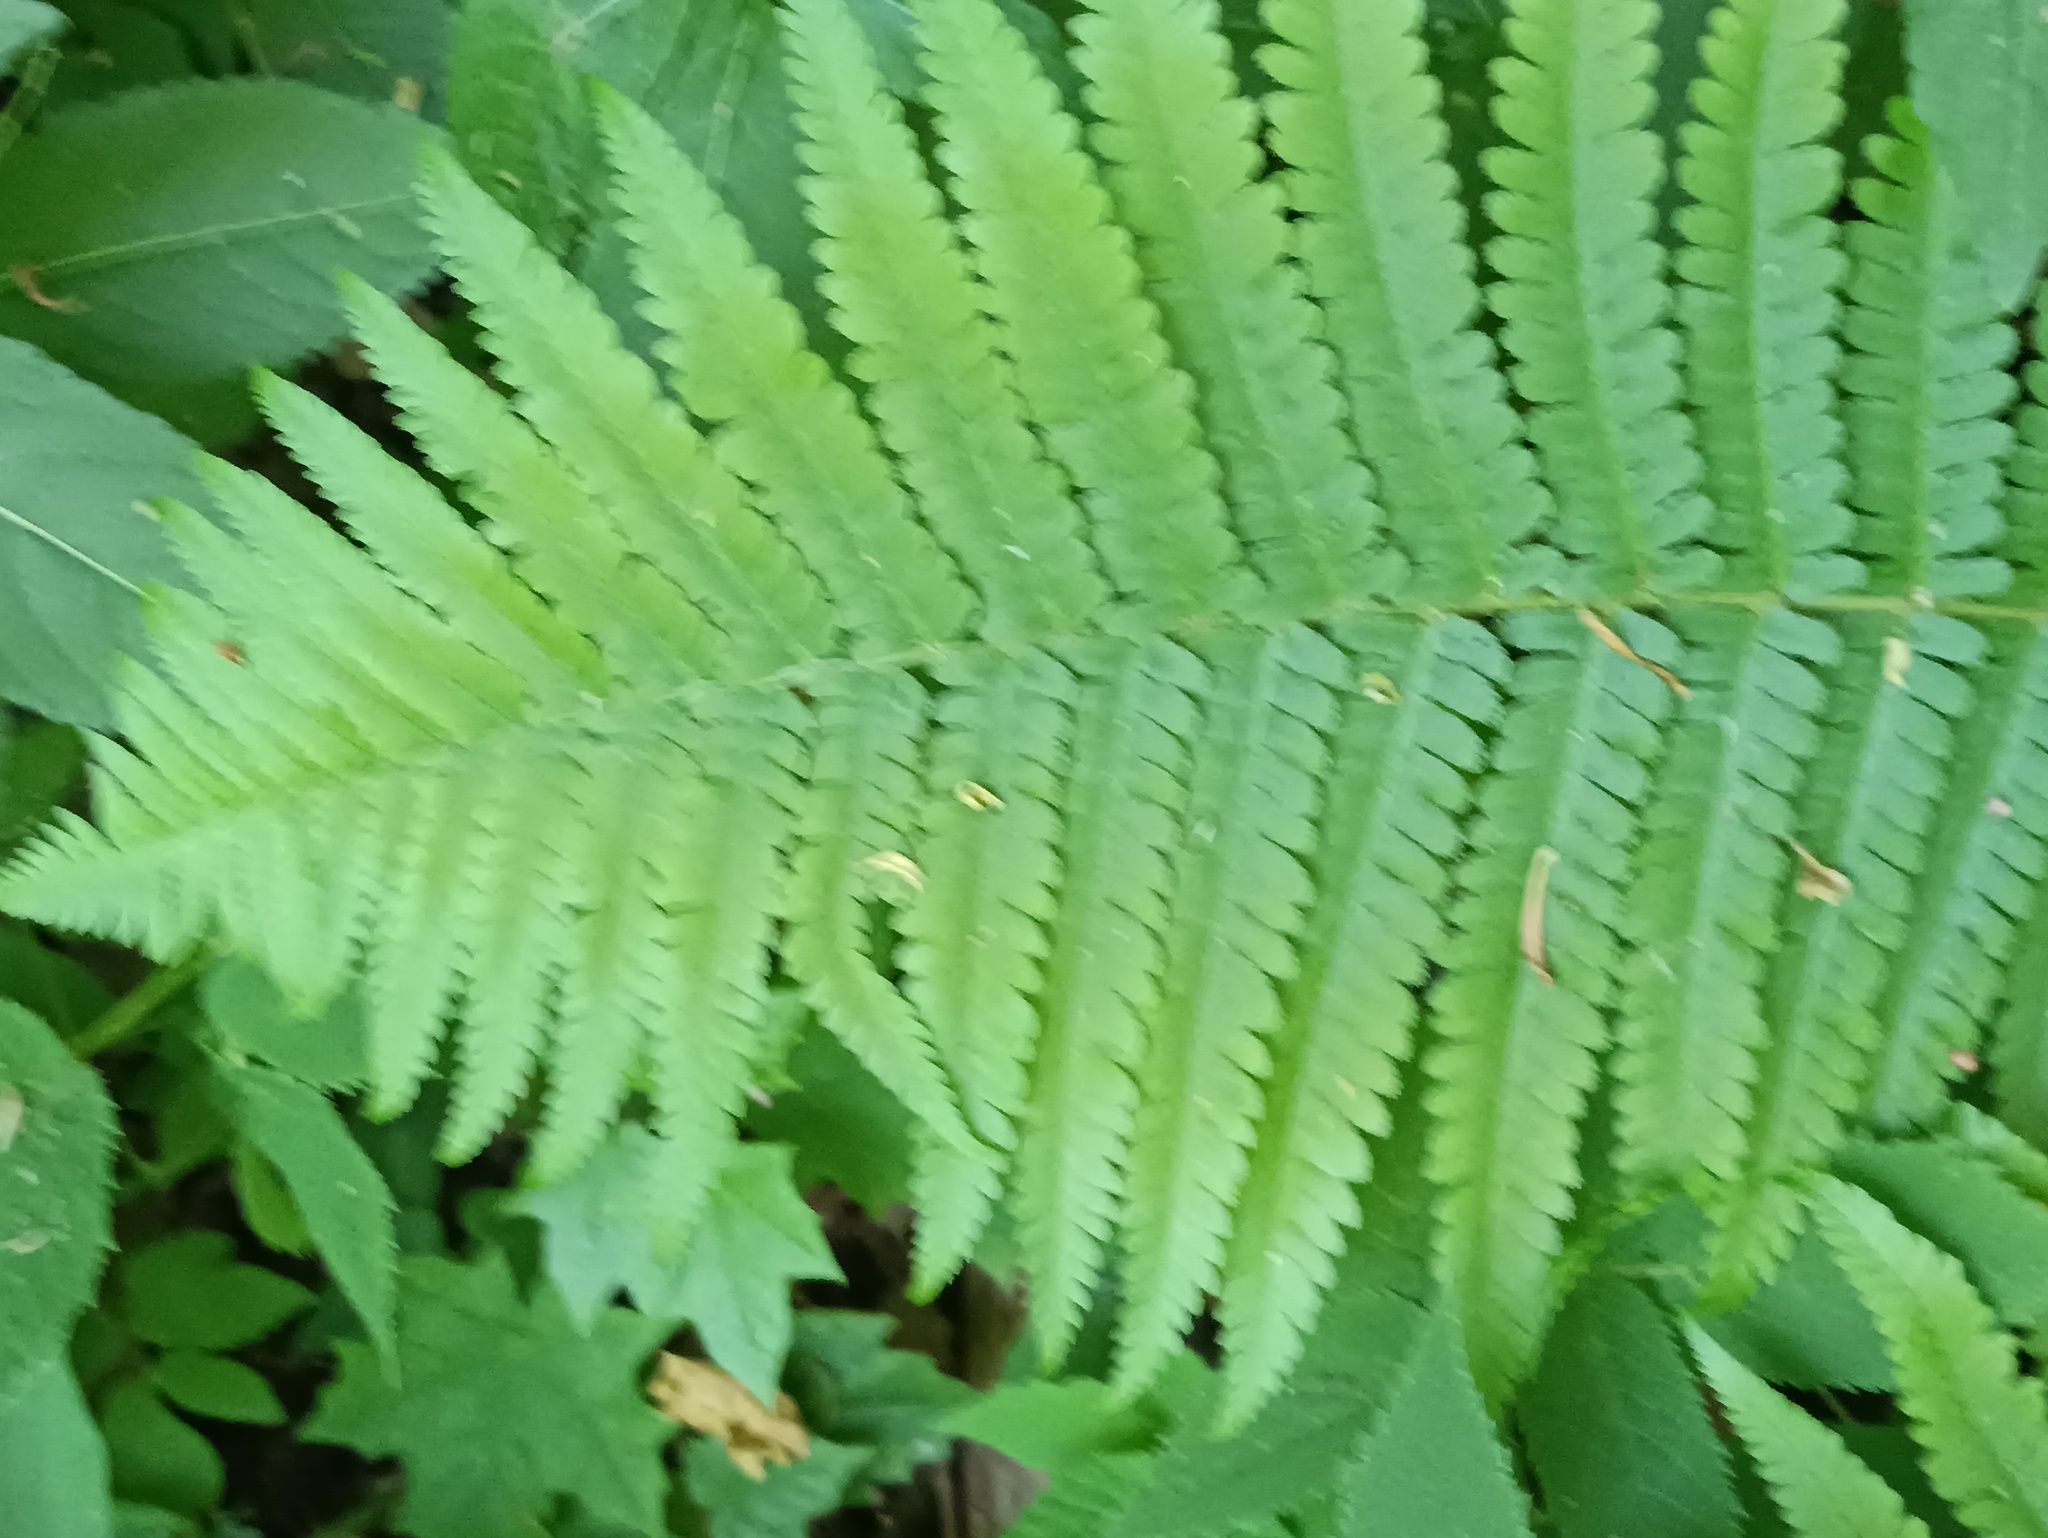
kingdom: Plantae
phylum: Tracheophyta
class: Polypodiopsida
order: Polypodiales
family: Dryopteridaceae
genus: Dryopteris
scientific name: Dryopteris filix-mas
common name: Male fern
